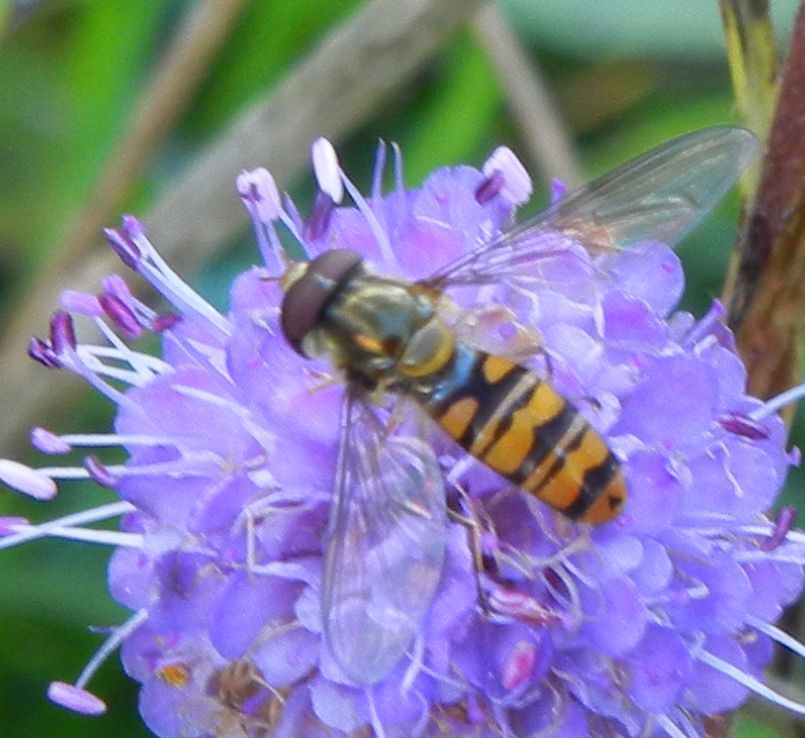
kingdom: Animalia
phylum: Arthropoda
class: Insecta
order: Diptera
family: Syrphidae
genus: Episyrphus
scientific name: Episyrphus balteatus
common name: Marmalade hoverfly
